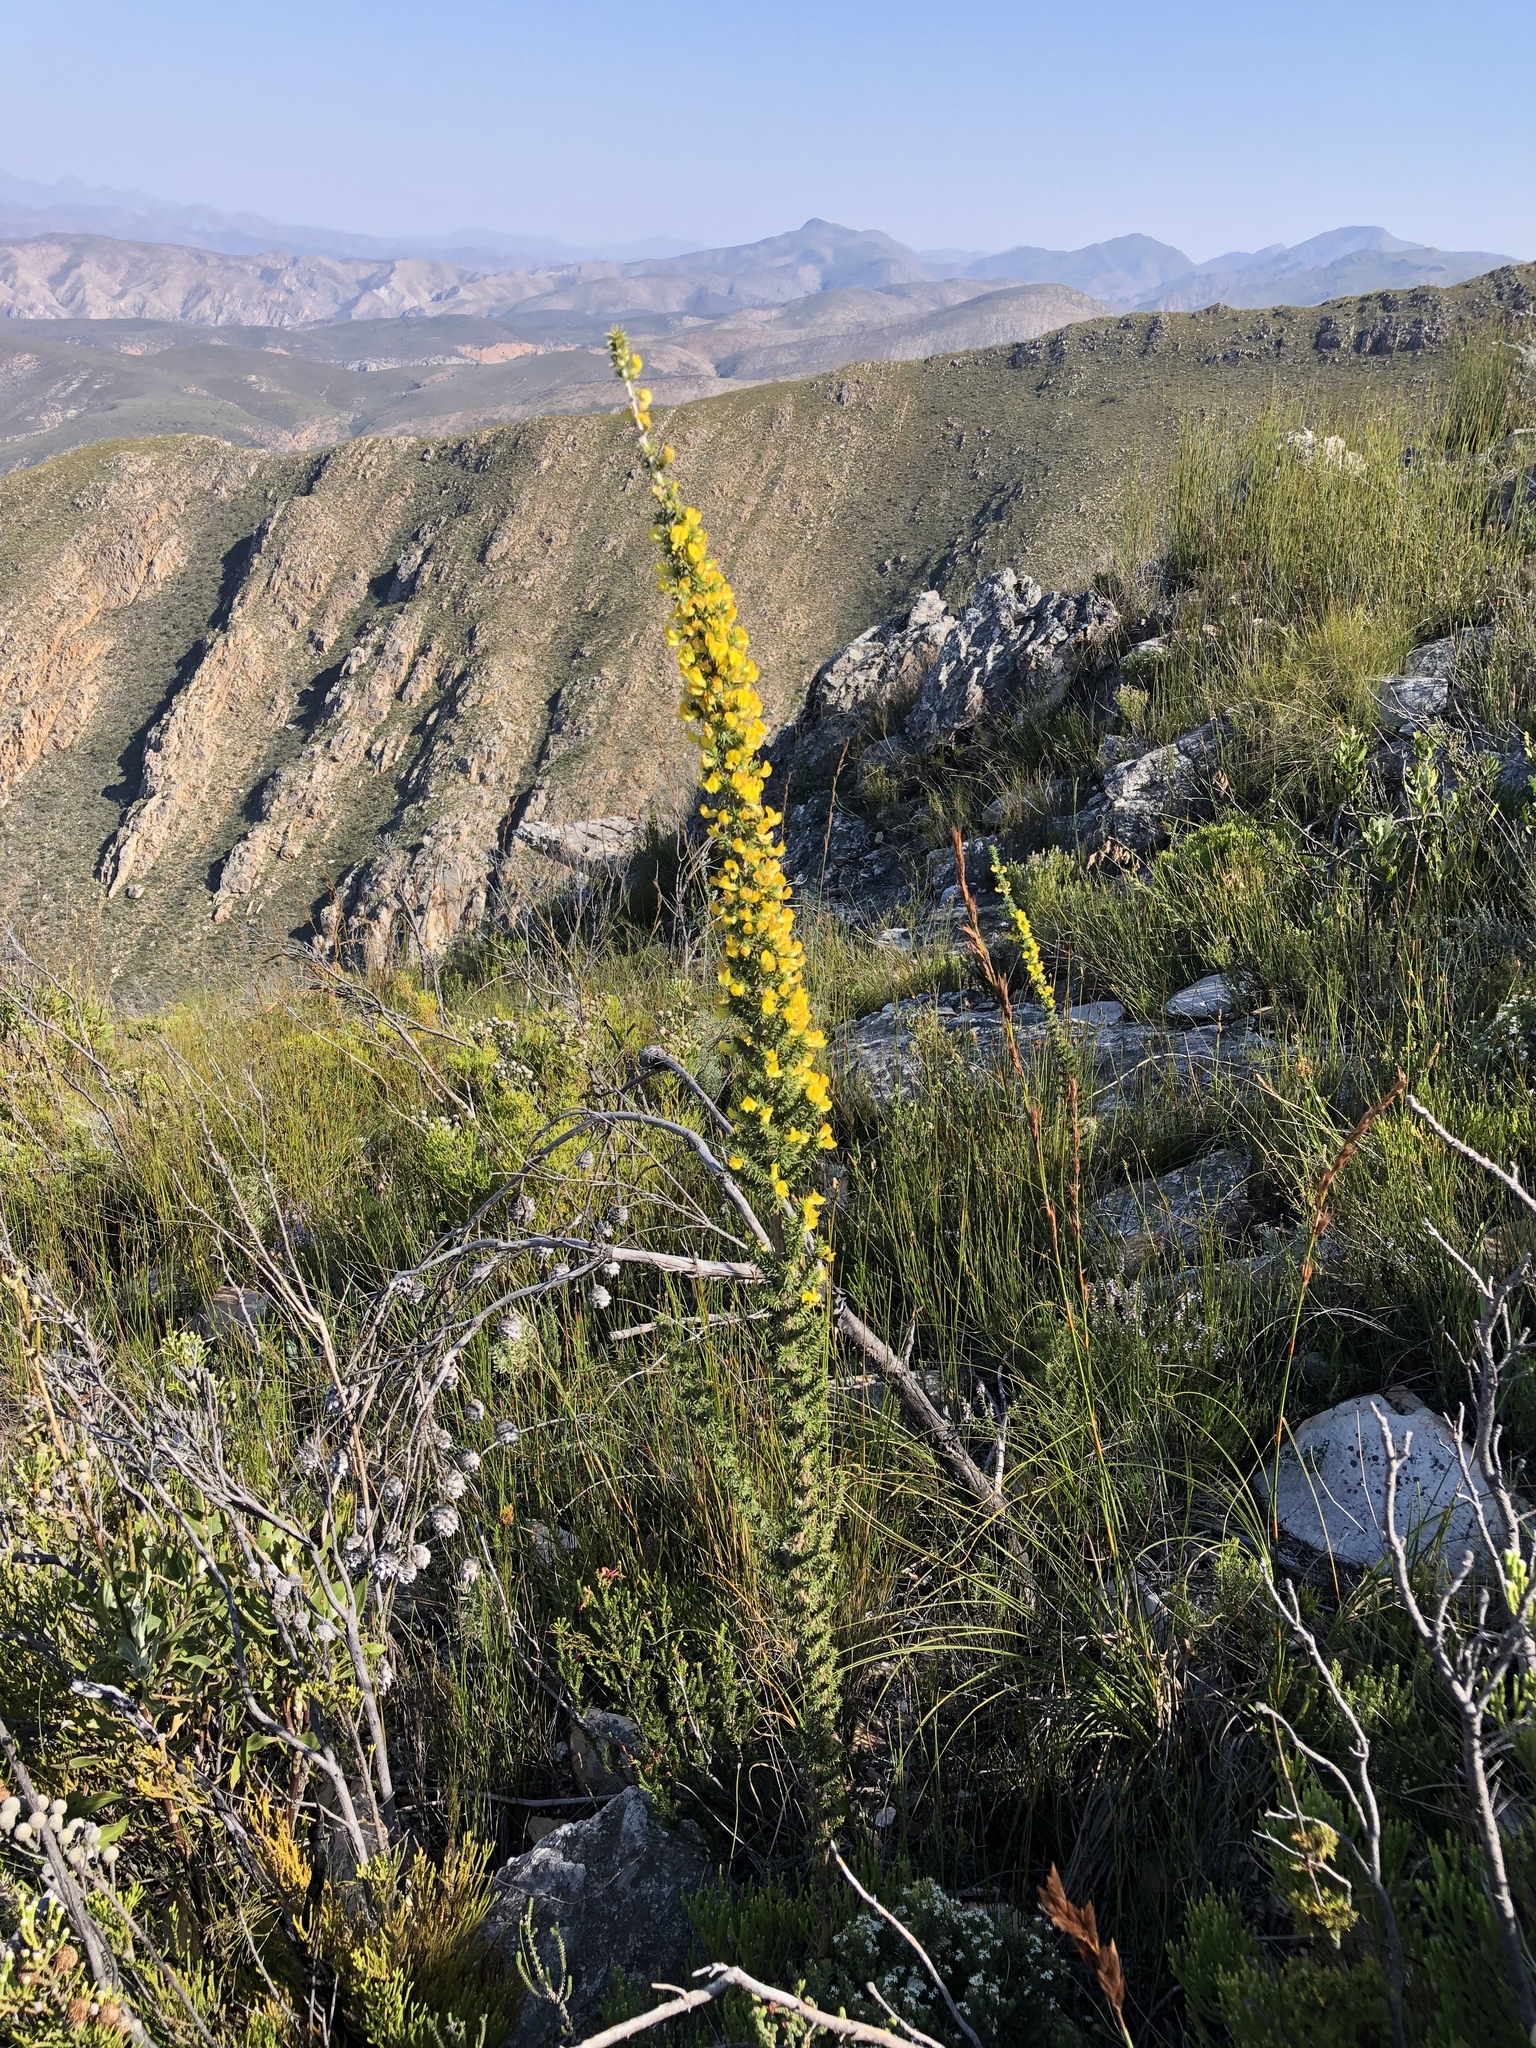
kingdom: Plantae
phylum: Tracheophyta
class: Magnoliopsida
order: Fabales
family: Fabaceae
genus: Aspalathus
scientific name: Aspalathus aciphylla
